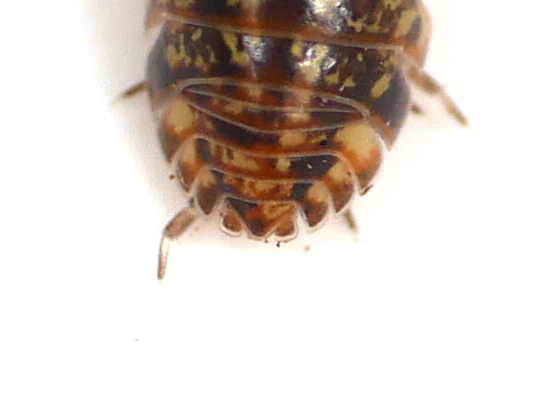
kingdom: Animalia
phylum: Arthropoda
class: Malacostraca
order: Isopoda
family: Armadillidiidae
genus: Armadillidium
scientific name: Armadillidium pictum
